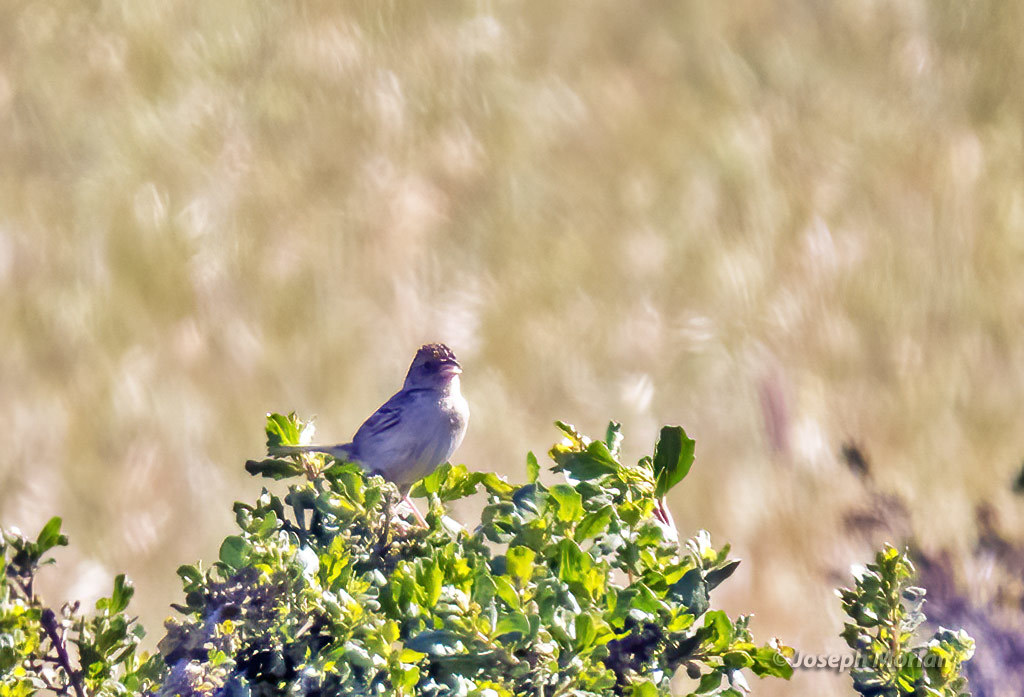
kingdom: Animalia
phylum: Chordata
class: Aves
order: Passeriformes
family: Passerellidae
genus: Ammodramus
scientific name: Ammodramus savannarum
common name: Grasshopper sparrow
